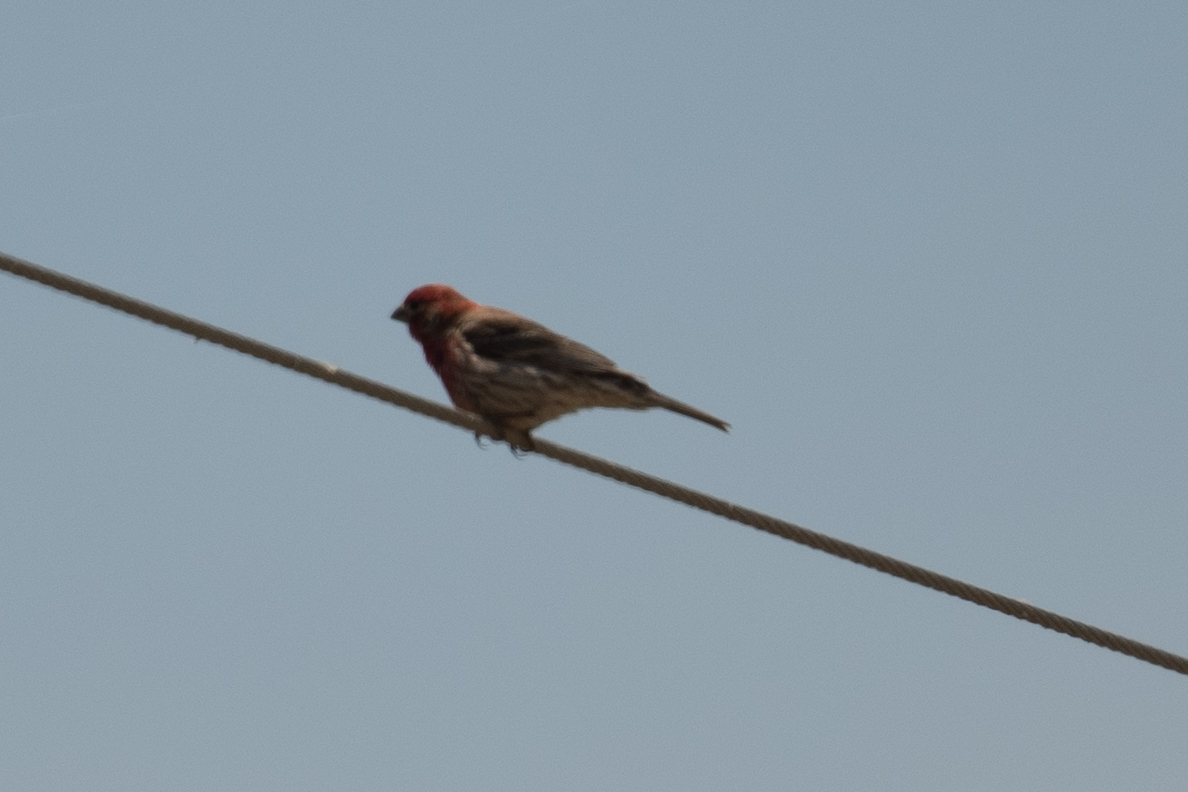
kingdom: Animalia
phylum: Chordata
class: Aves
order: Passeriformes
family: Fringillidae
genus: Haemorhous
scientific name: Haemorhous mexicanus
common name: House finch
